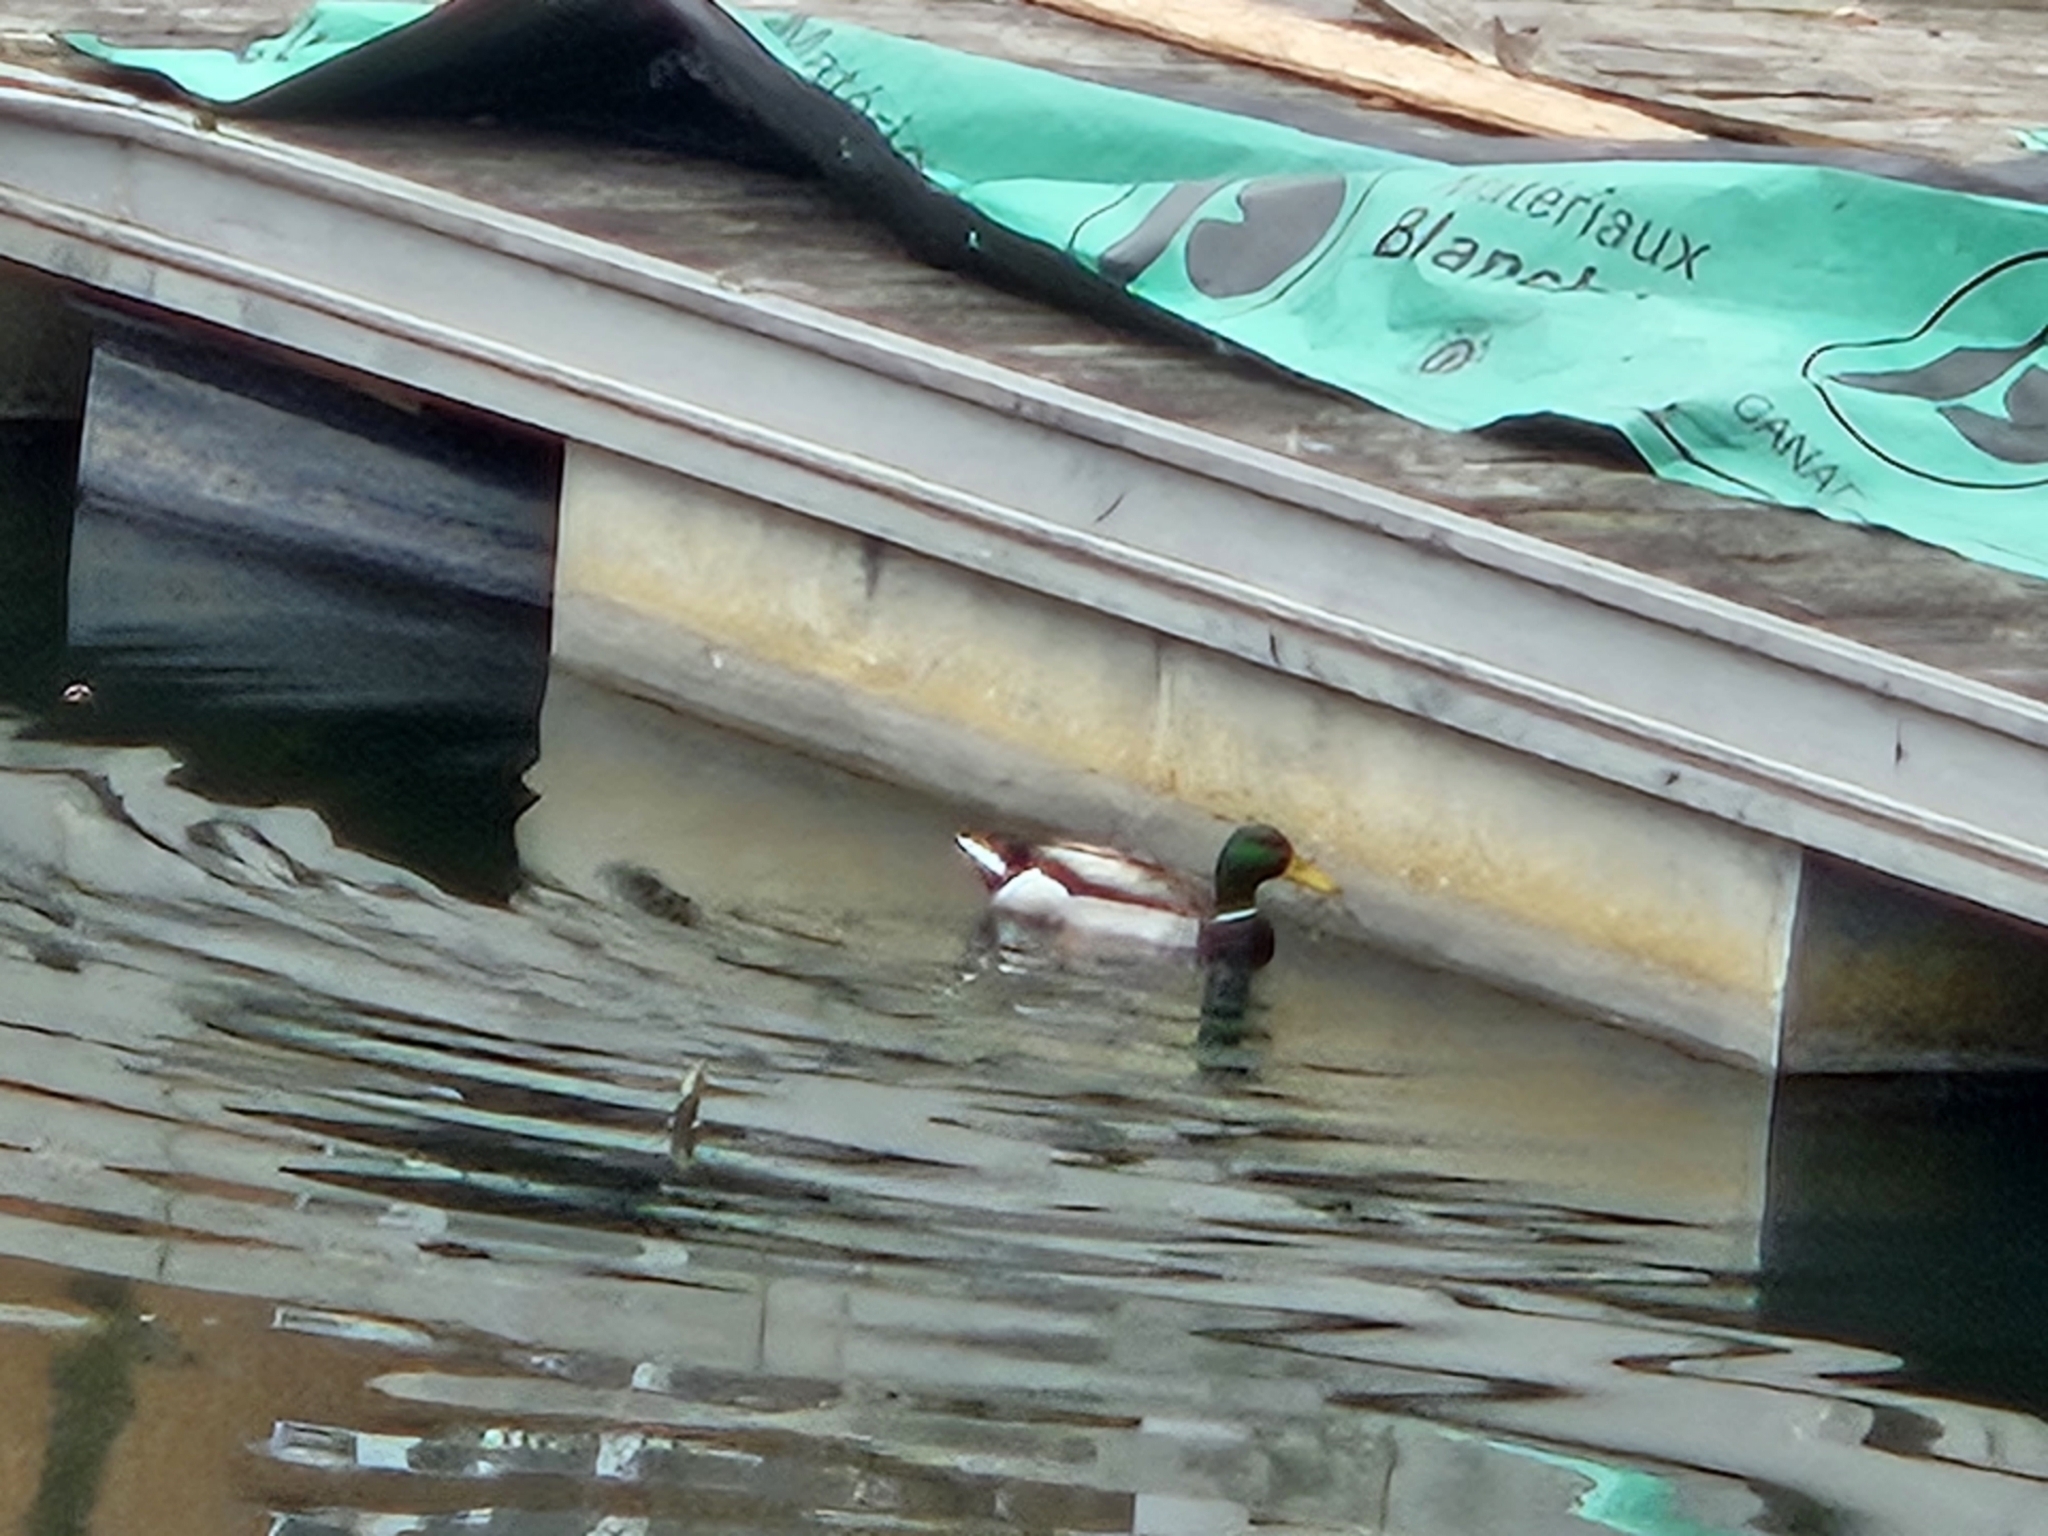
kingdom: Animalia
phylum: Chordata
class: Aves
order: Anseriformes
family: Anatidae
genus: Anas
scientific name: Anas platyrhynchos
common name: Mallard
